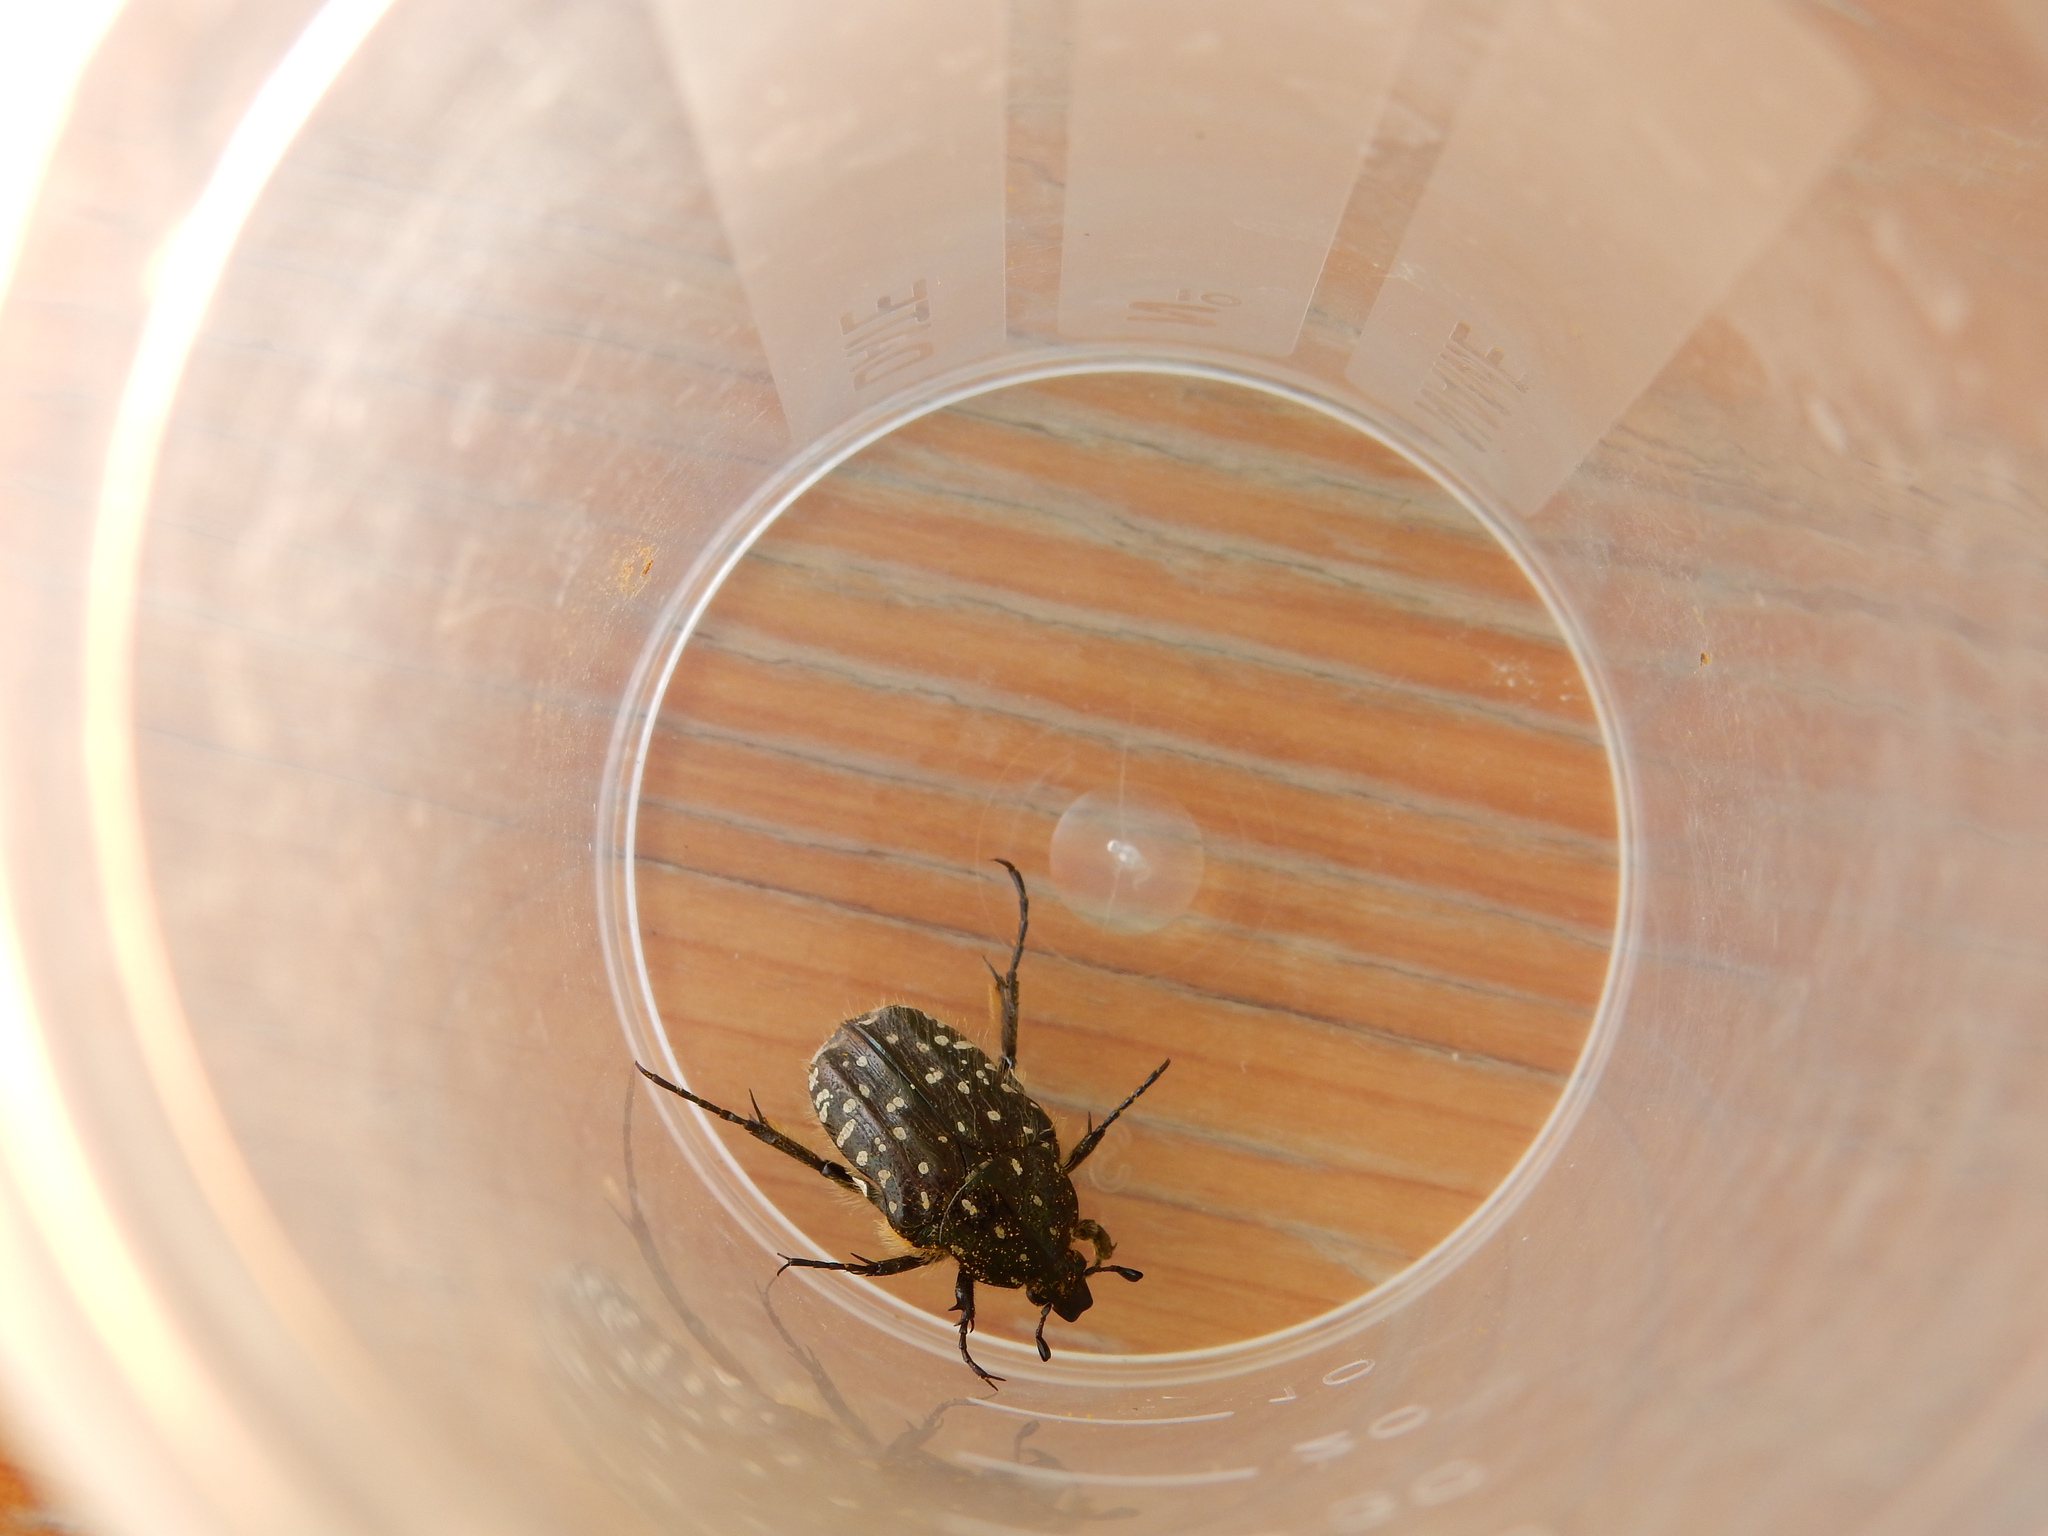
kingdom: Animalia
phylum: Arthropoda
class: Insecta
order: Coleoptera
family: Scarabaeidae
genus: Oxythyrea
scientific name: Oxythyrea funesta
